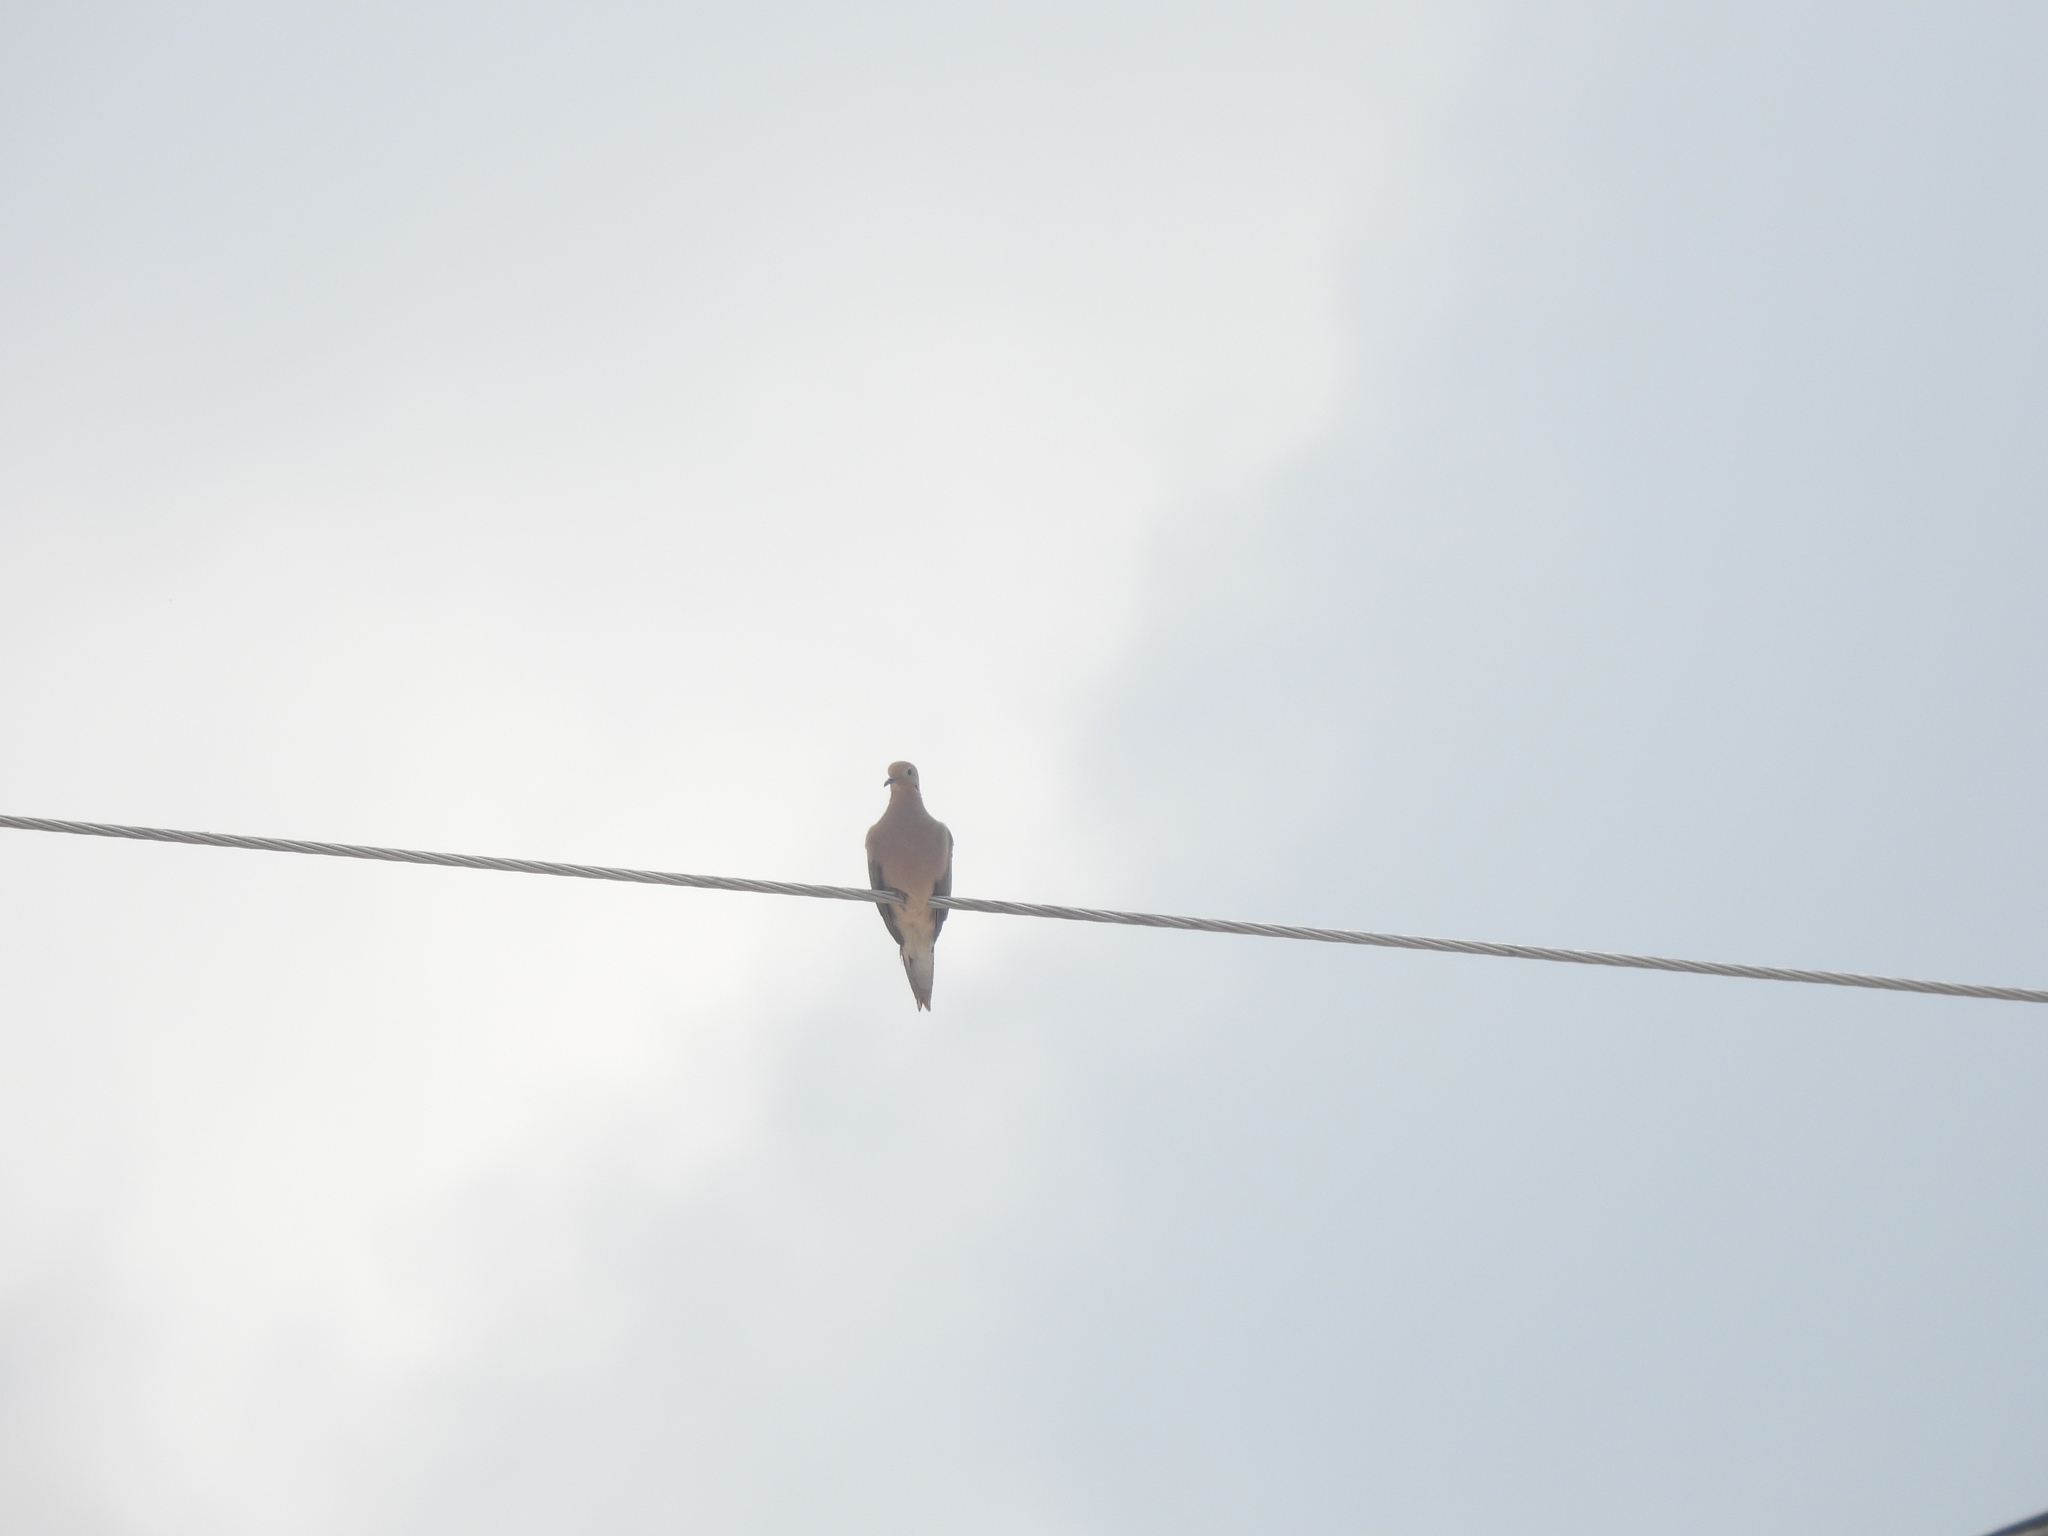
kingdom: Animalia
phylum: Chordata
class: Aves
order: Columbiformes
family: Columbidae
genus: Zenaida
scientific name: Zenaida macroura
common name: Mourning dove
